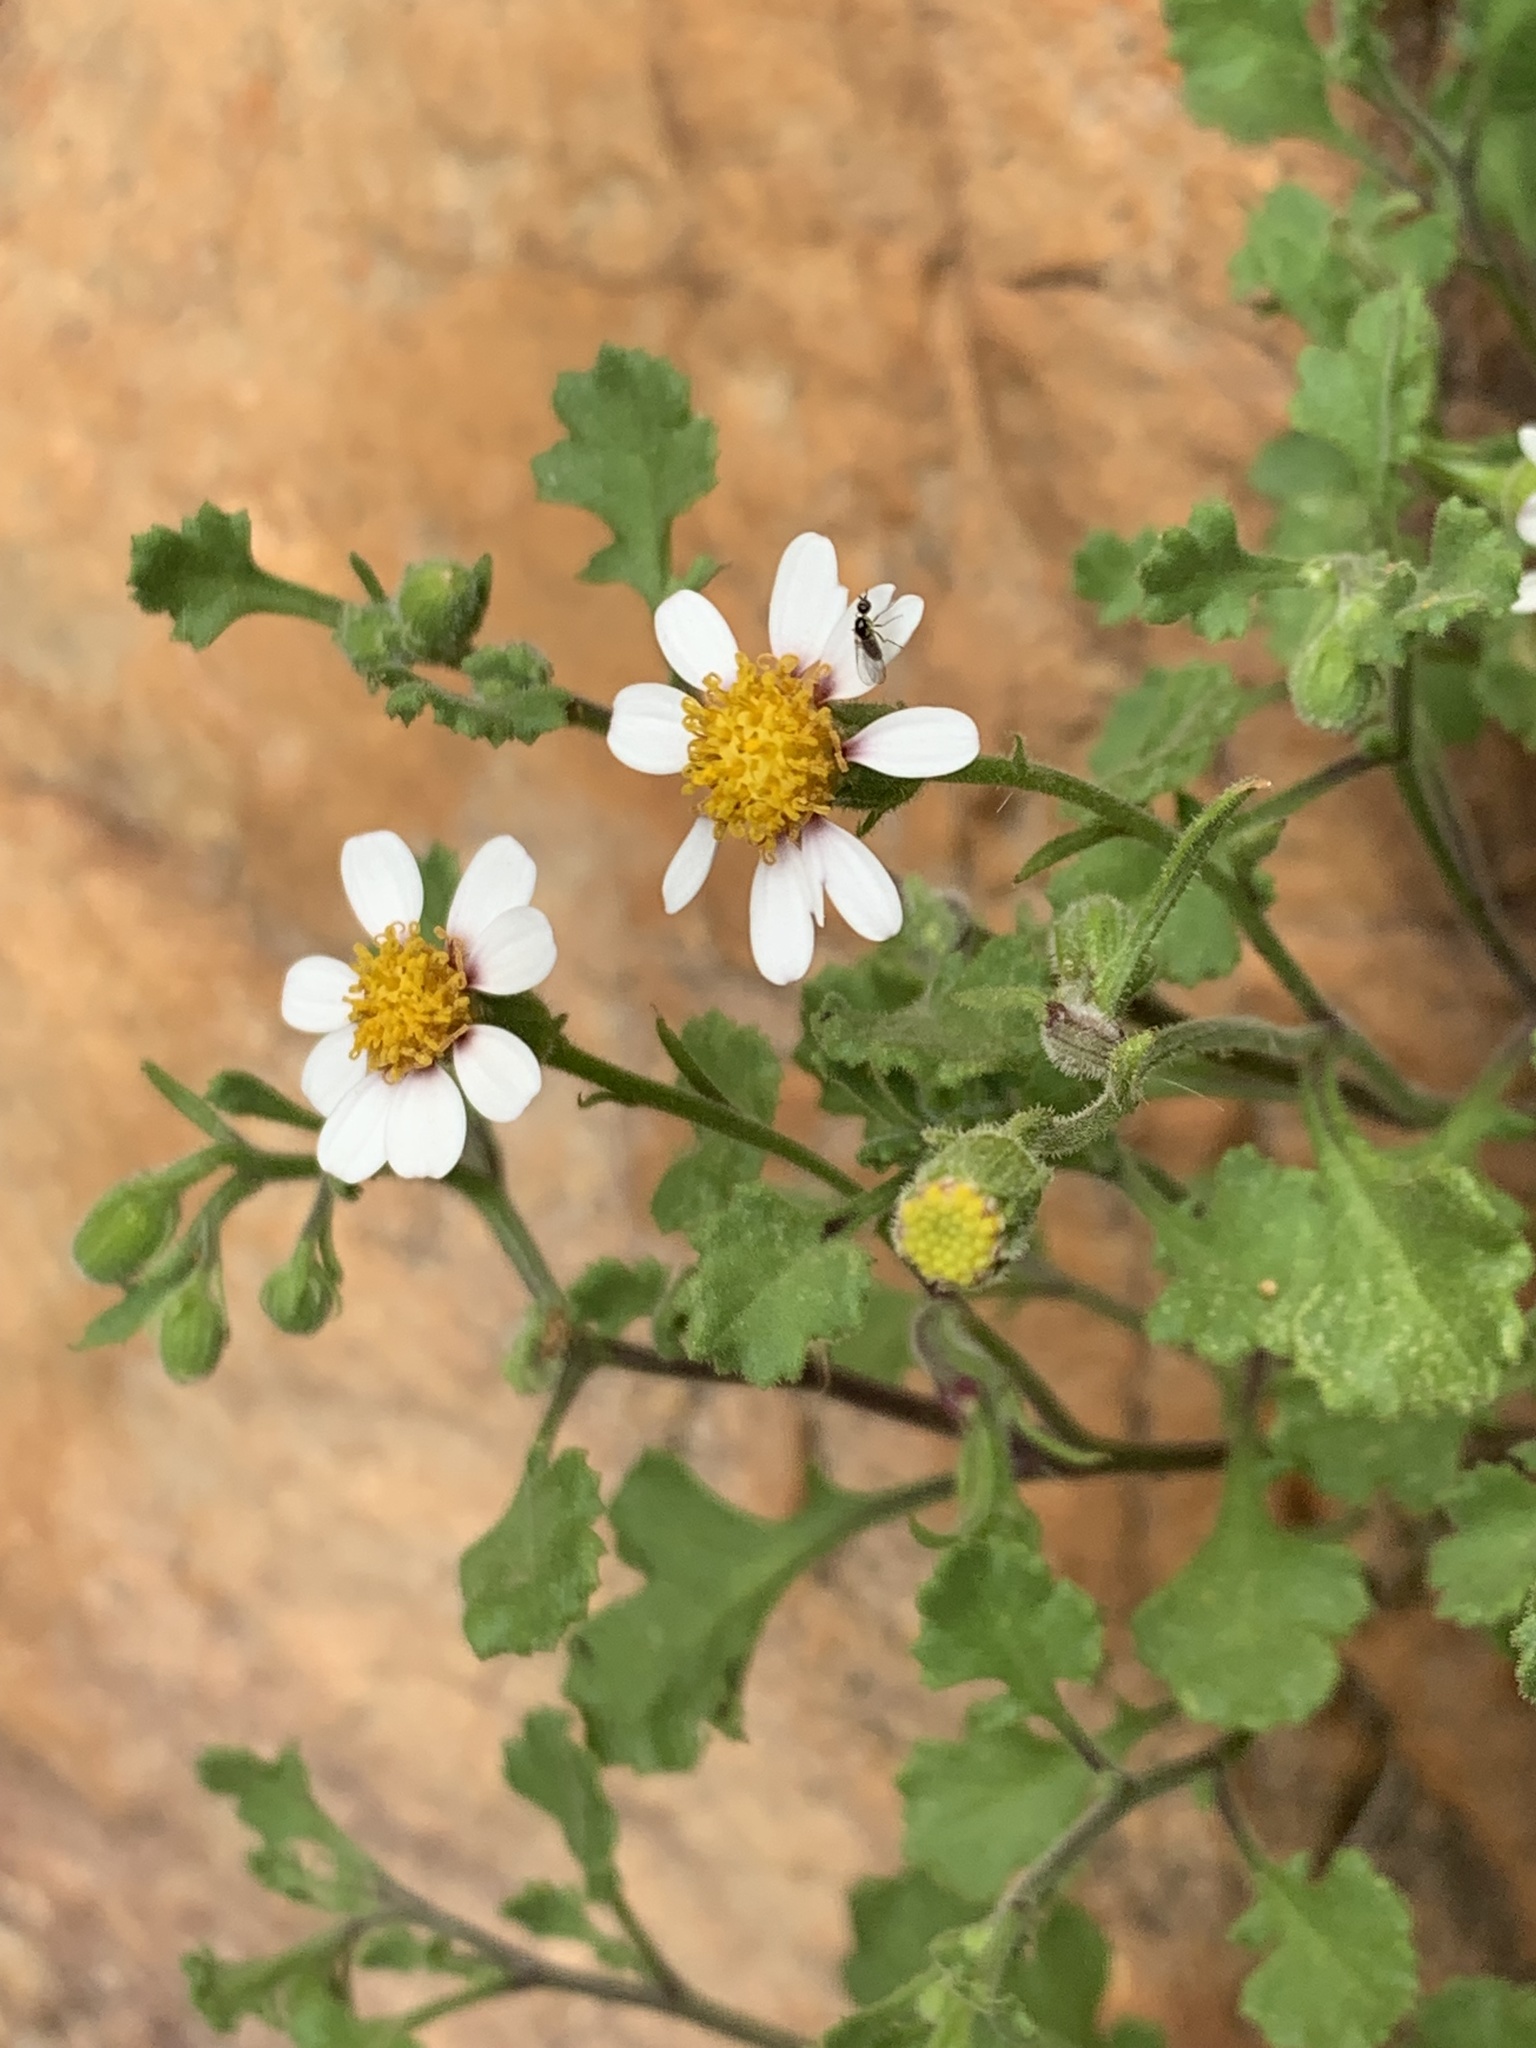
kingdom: Plantae
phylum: Tracheophyta
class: Magnoliopsida
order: Asterales
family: Asteraceae
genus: Senecio
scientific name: Senecio tortuosus
